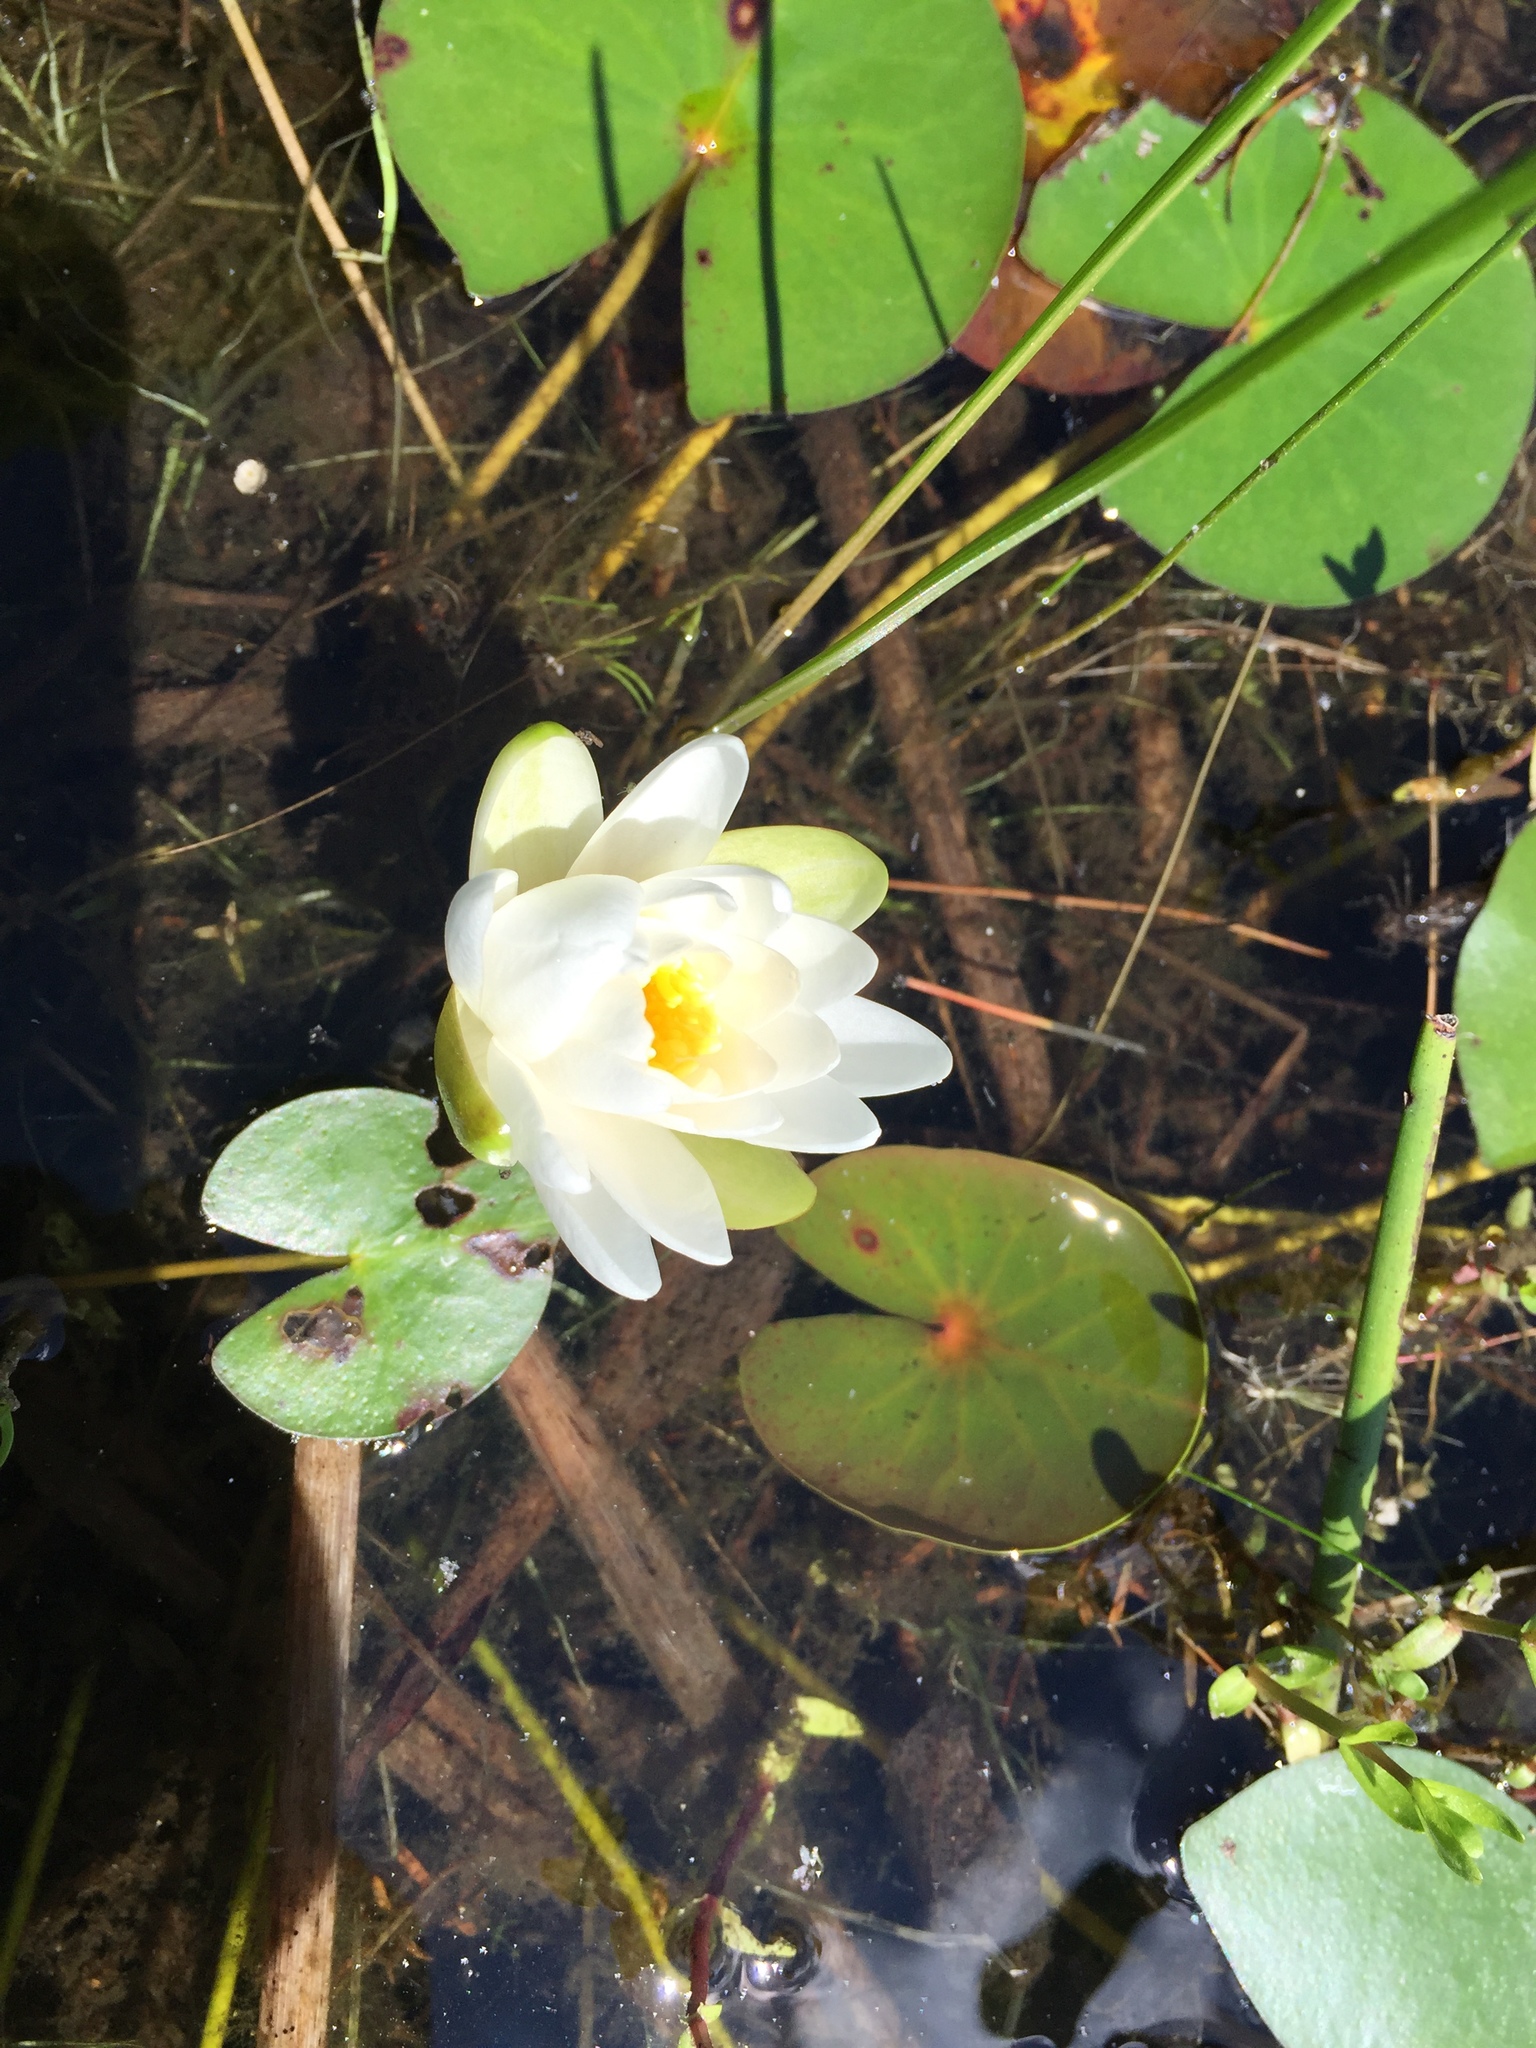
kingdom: Plantae
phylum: Tracheophyta
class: Magnoliopsida
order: Nymphaeales
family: Nymphaeaceae
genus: Nymphaea
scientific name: Nymphaea odorata
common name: Fragrant water-lily
